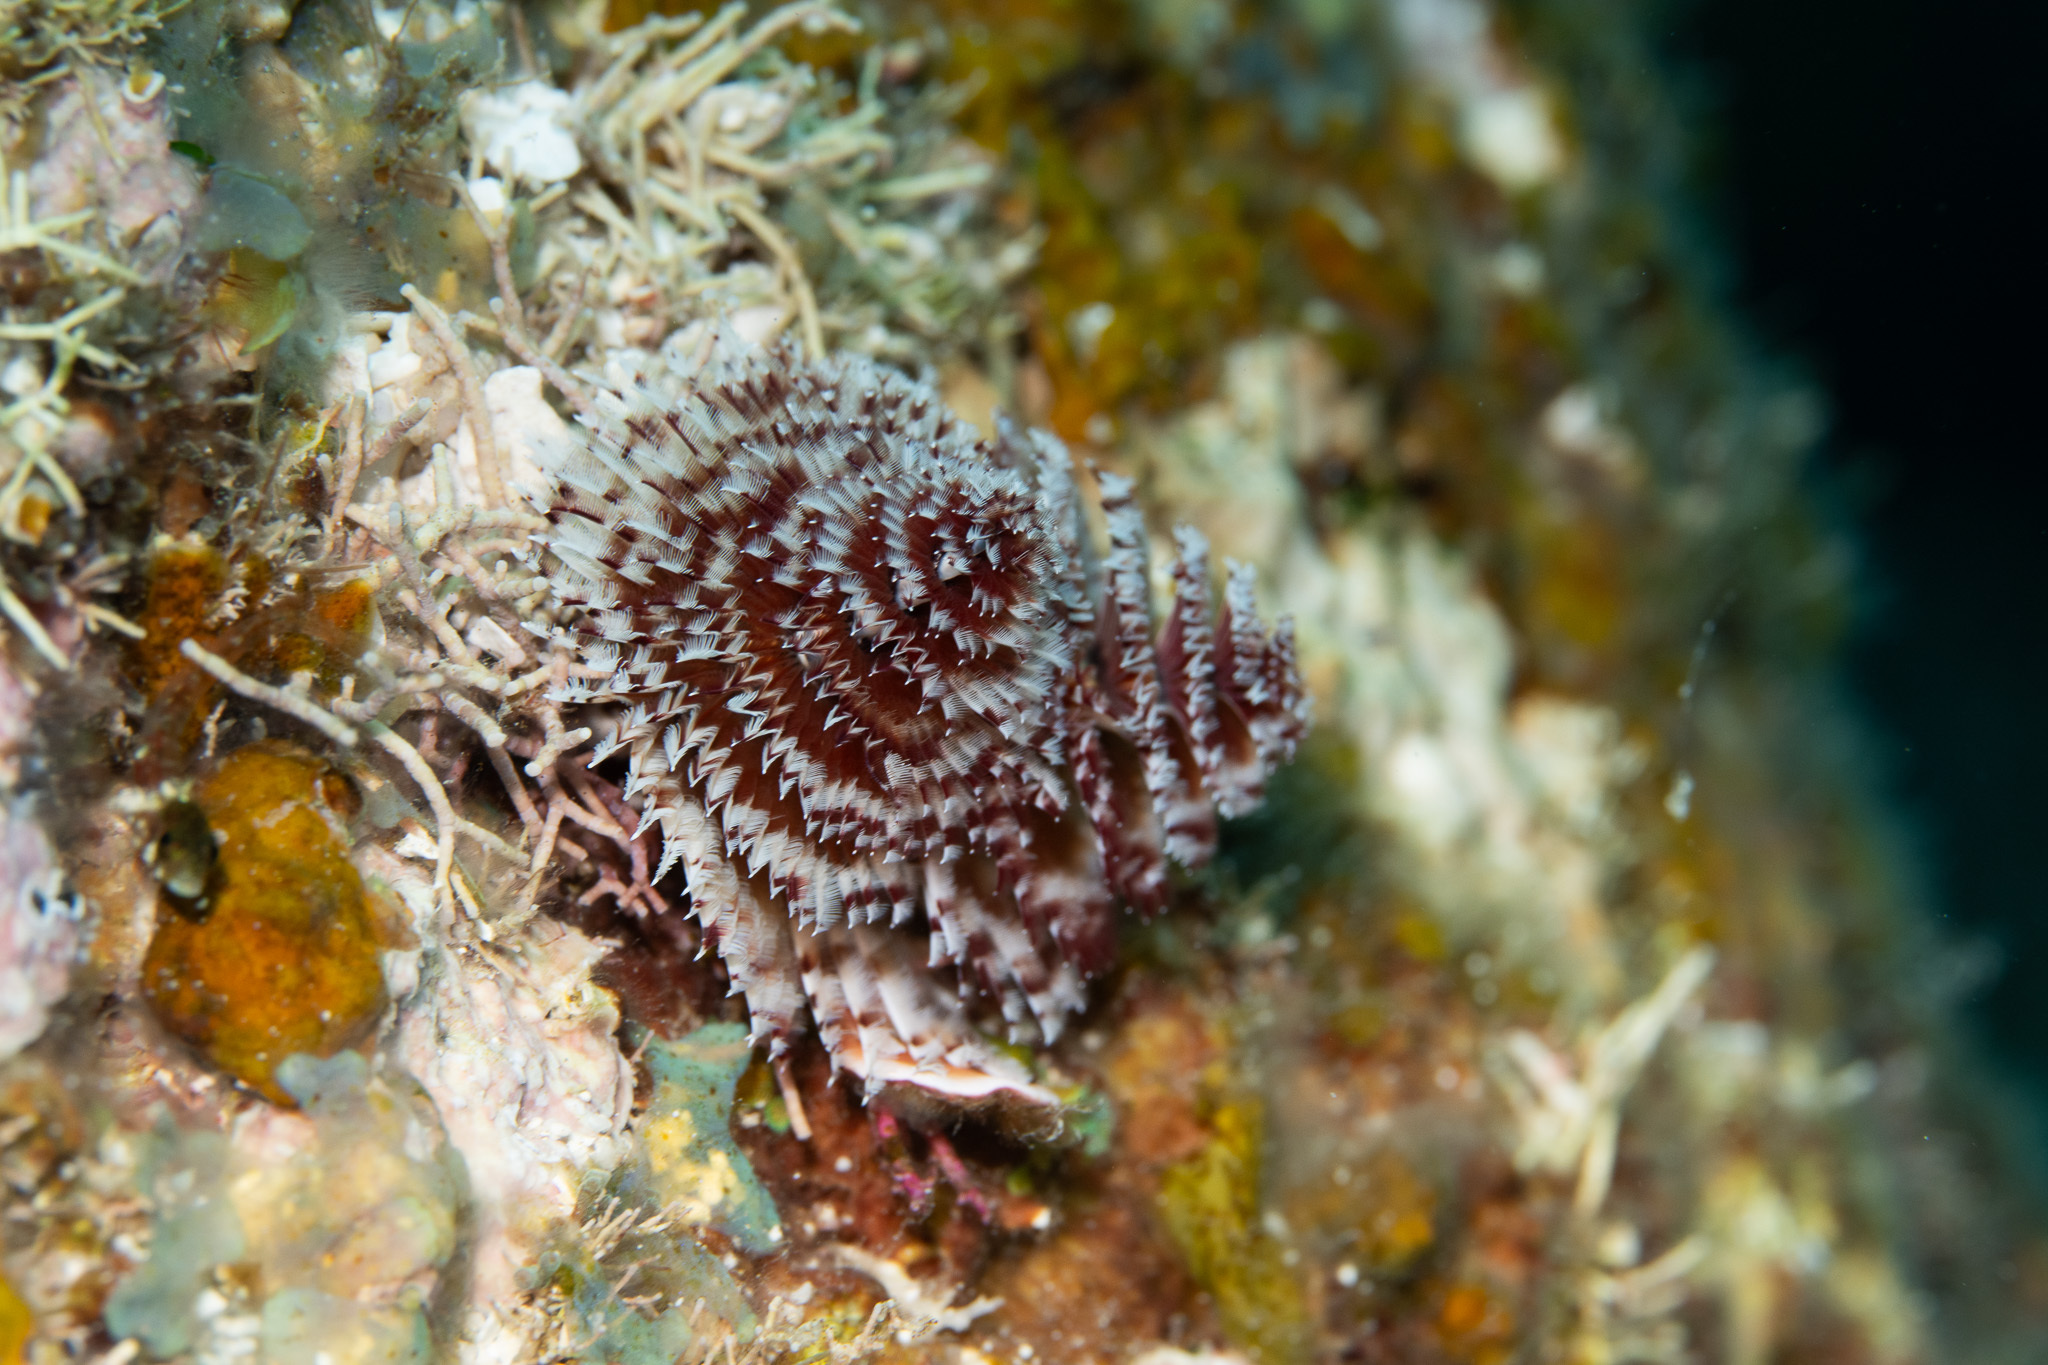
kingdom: Animalia
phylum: Annelida
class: Polychaeta
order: Sabellida
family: Serpulidae
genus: Spirobranchus
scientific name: Spirobranchus giganteus
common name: Christmas tree worm
